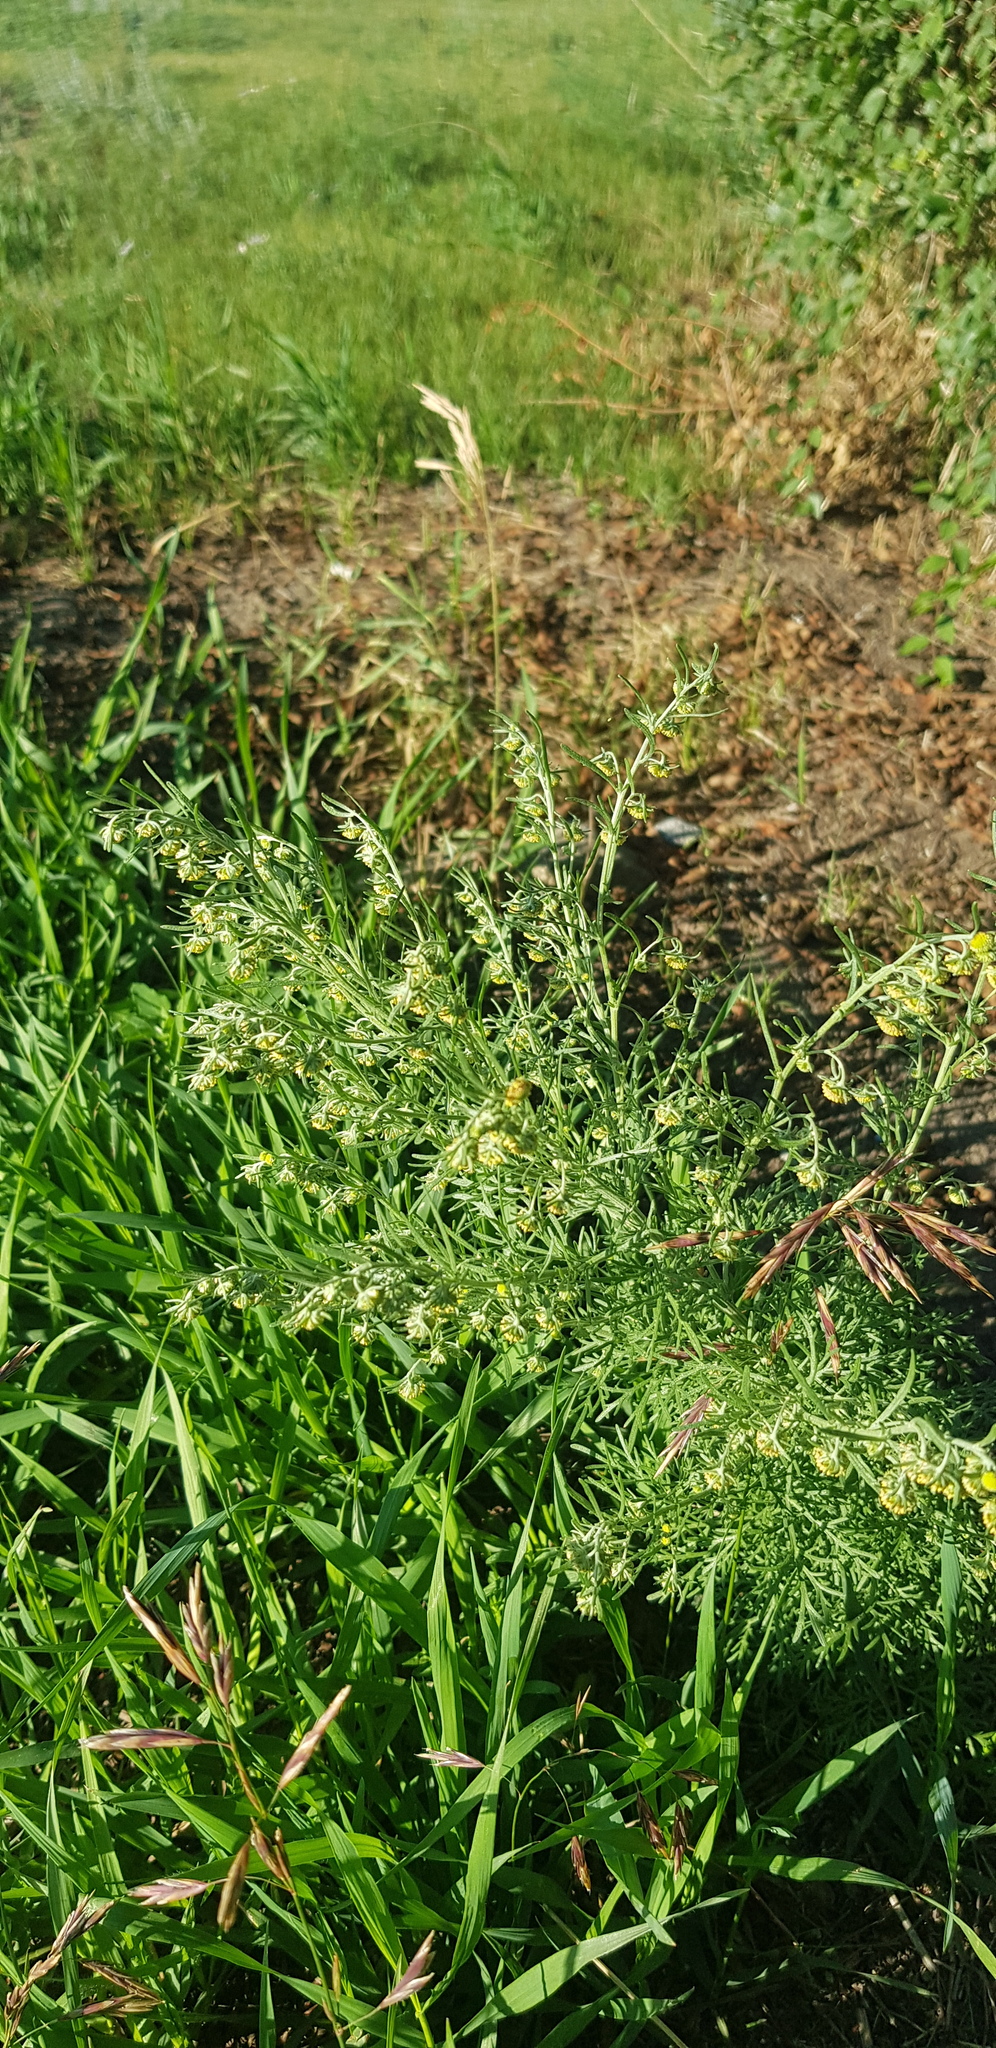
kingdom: Plantae
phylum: Tracheophyta
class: Magnoliopsida
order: Asterales
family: Asteraceae
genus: Artemisia
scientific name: Artemisia sieversiana
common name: Sieversian wormwood
